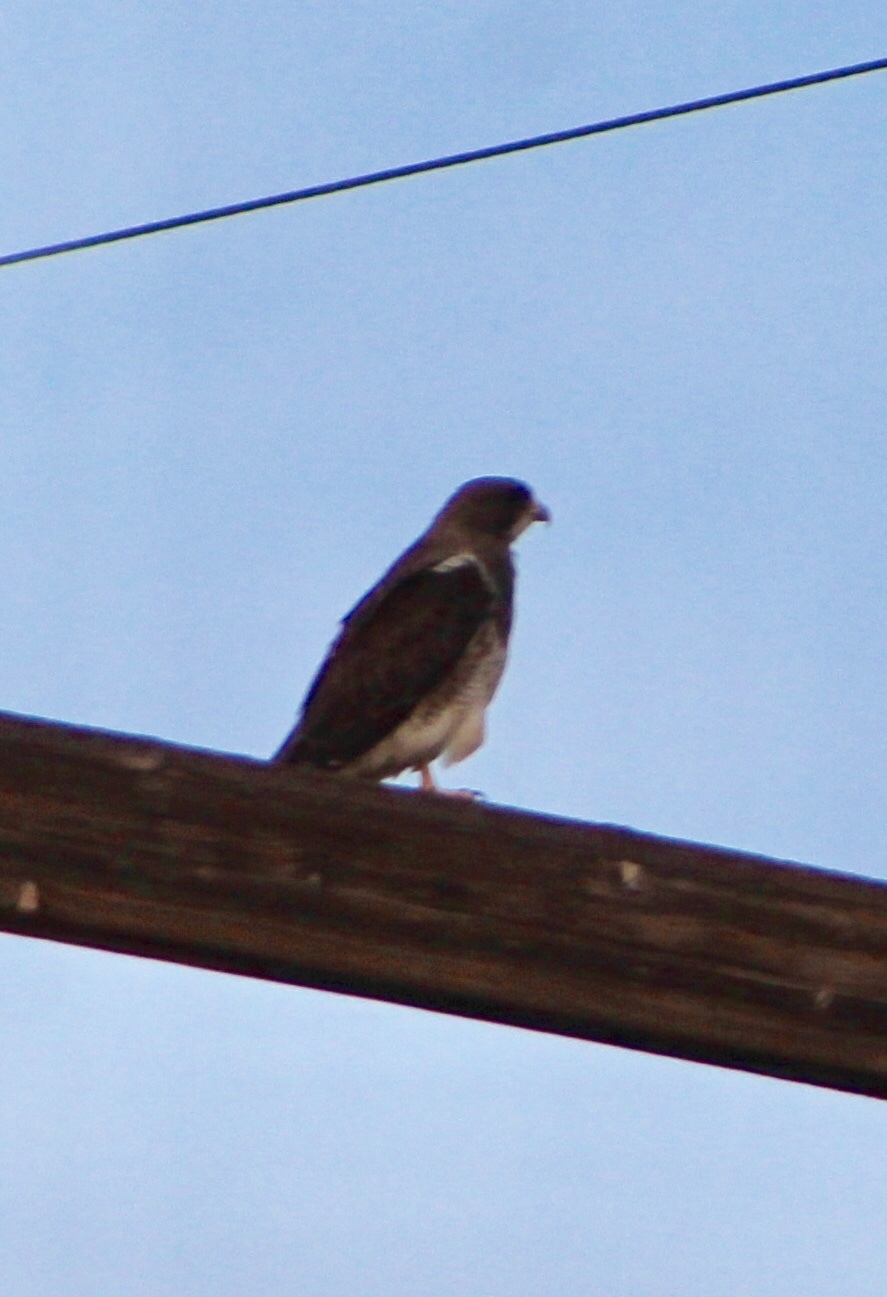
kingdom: Animalia
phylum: Chordata
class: Aves
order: Accipitriformes
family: Accipitridae
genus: Buteo
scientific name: Buteo swainsoni
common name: Swainson's hawk
